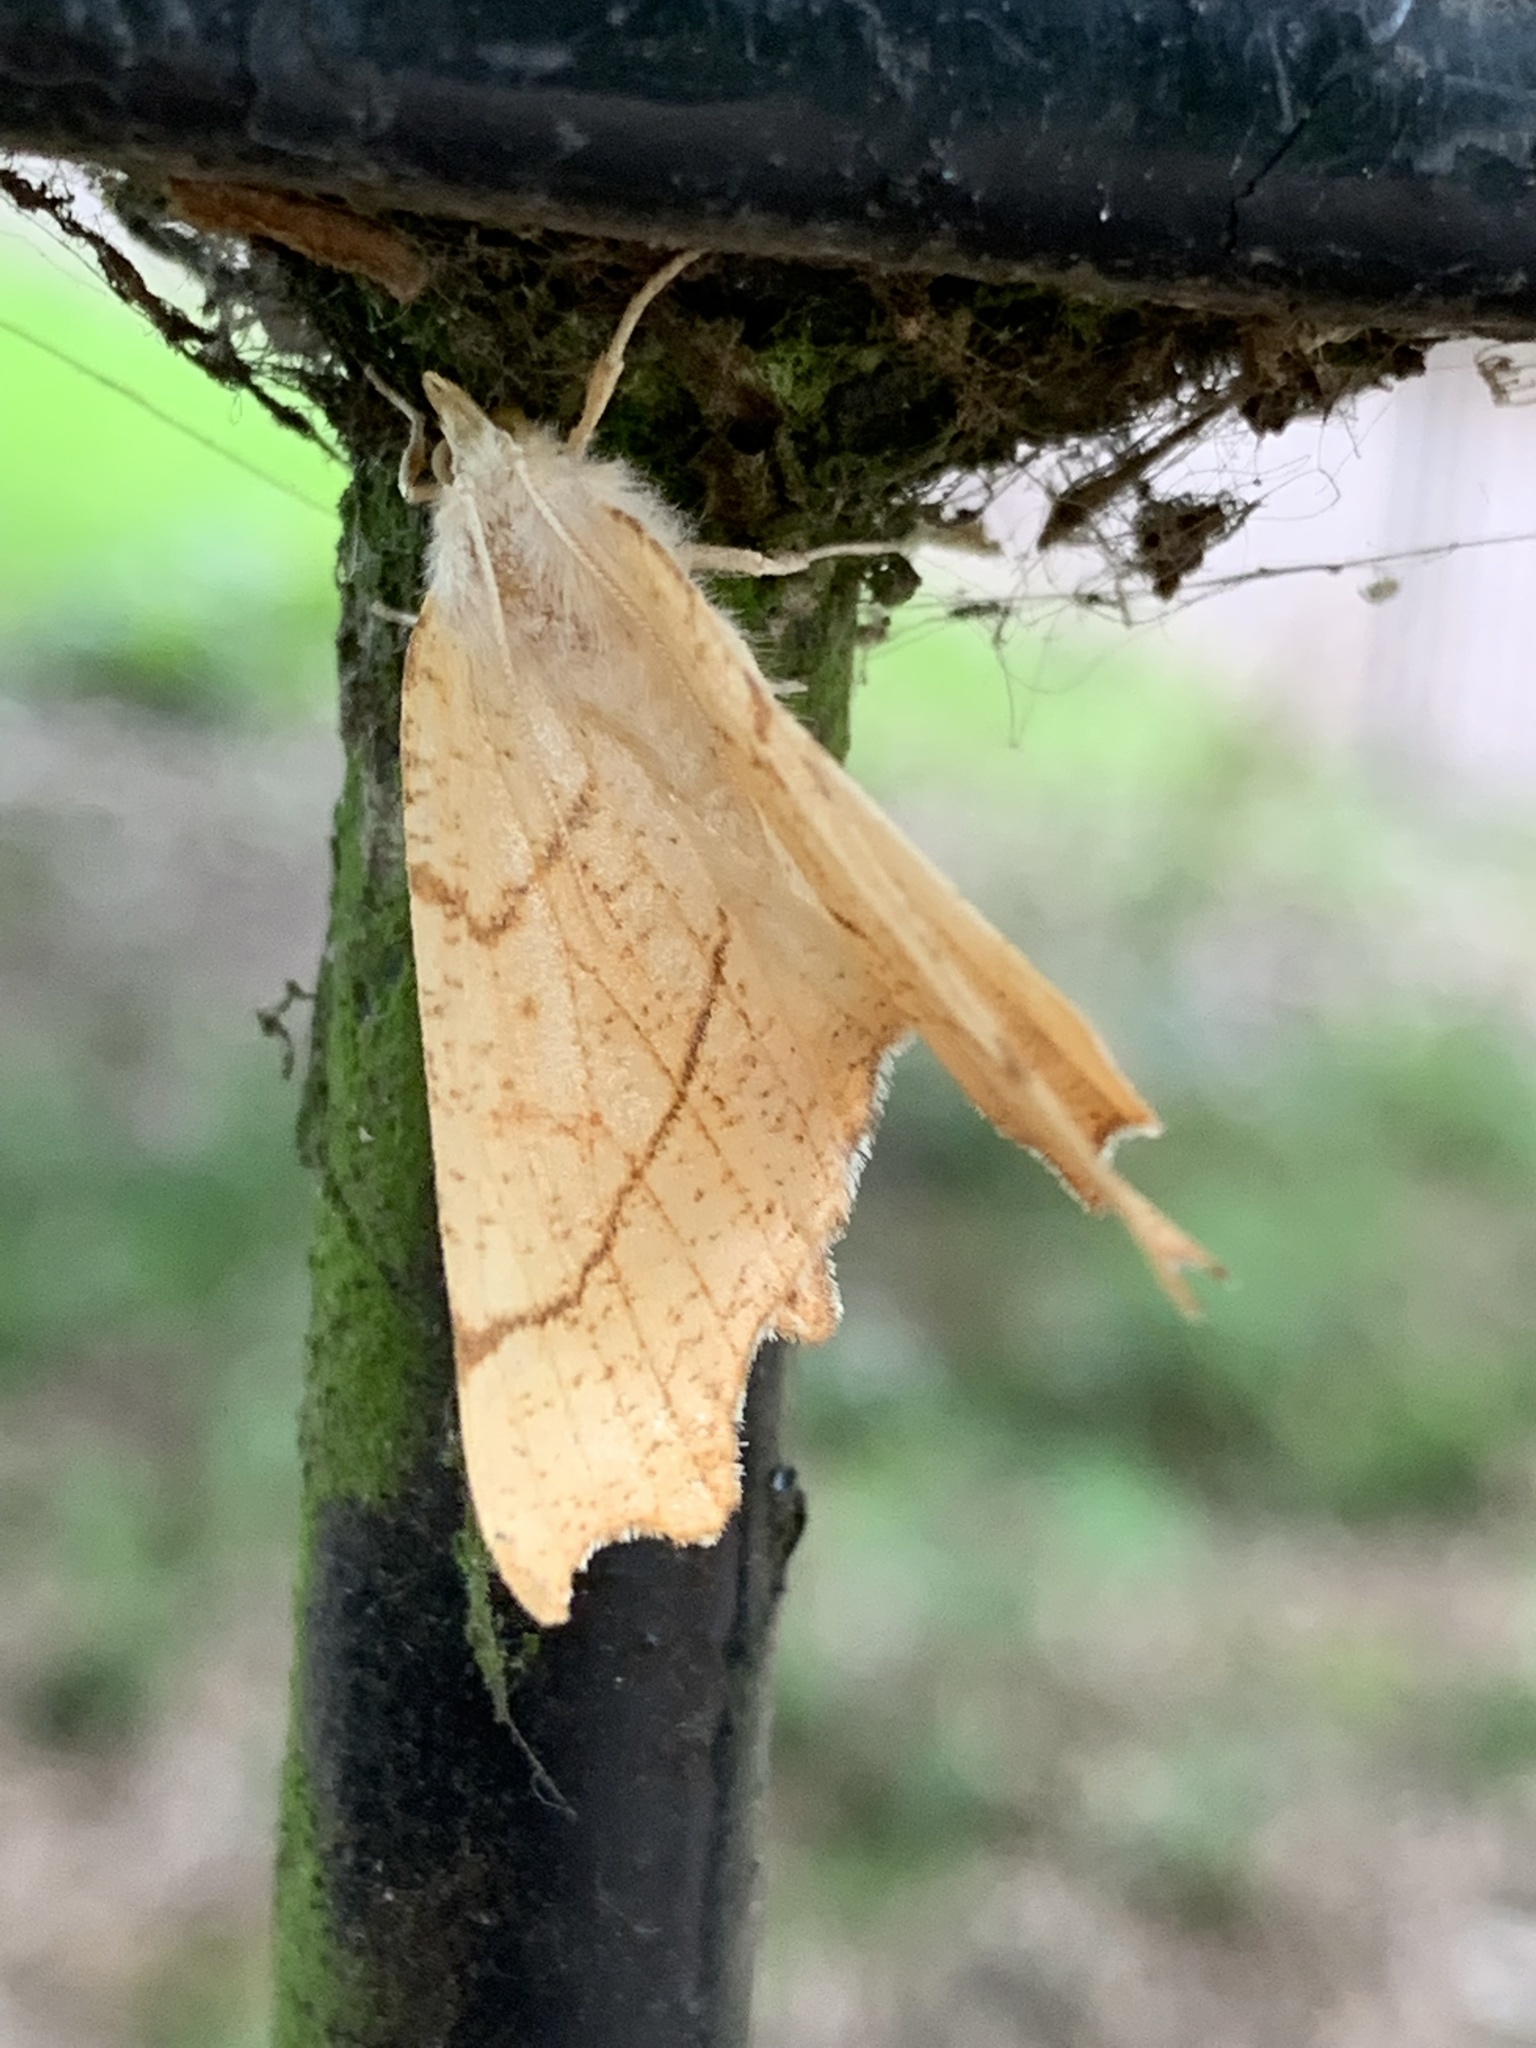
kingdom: Animalia
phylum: Arthropoda
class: Insecta
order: Lepidoptera
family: Geometridae
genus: Ennomos
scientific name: Ennomos quercinaria
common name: August thorn
